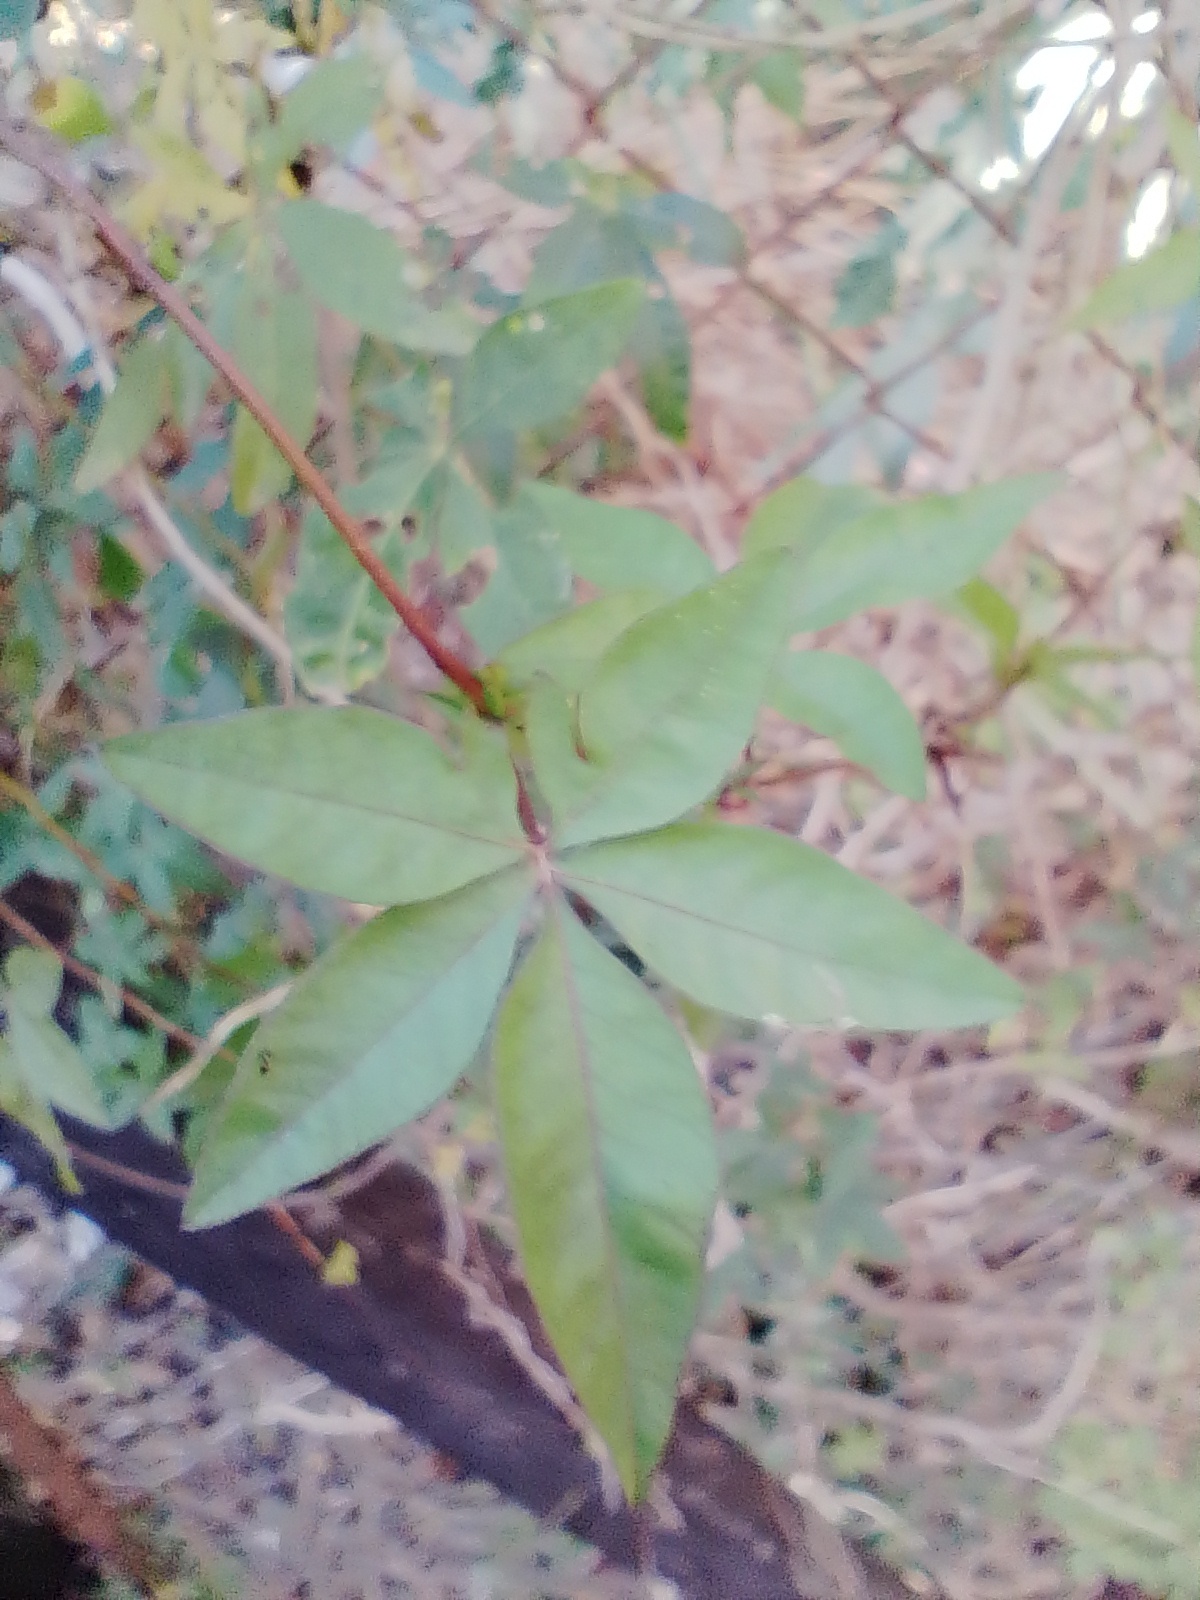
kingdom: Plantae
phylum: Tracheophyta
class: Magnoliopsida
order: Solanales
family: Convolvulaceae
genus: Ipomoea
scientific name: Ipomoea cairica
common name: Mile a minute vine
